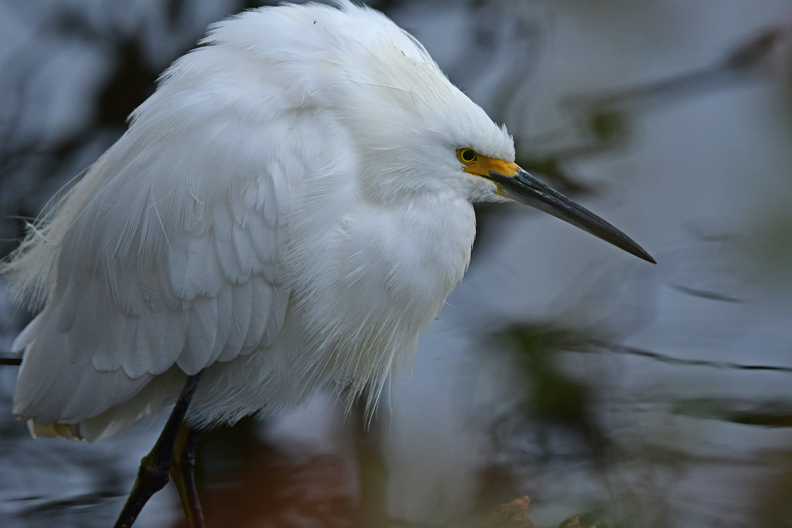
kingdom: Animalia
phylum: Chordata
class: Aves
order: Pelecaniformes
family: Ardeidae
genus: Egretta
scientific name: Egretta thula
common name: Snowy egret
